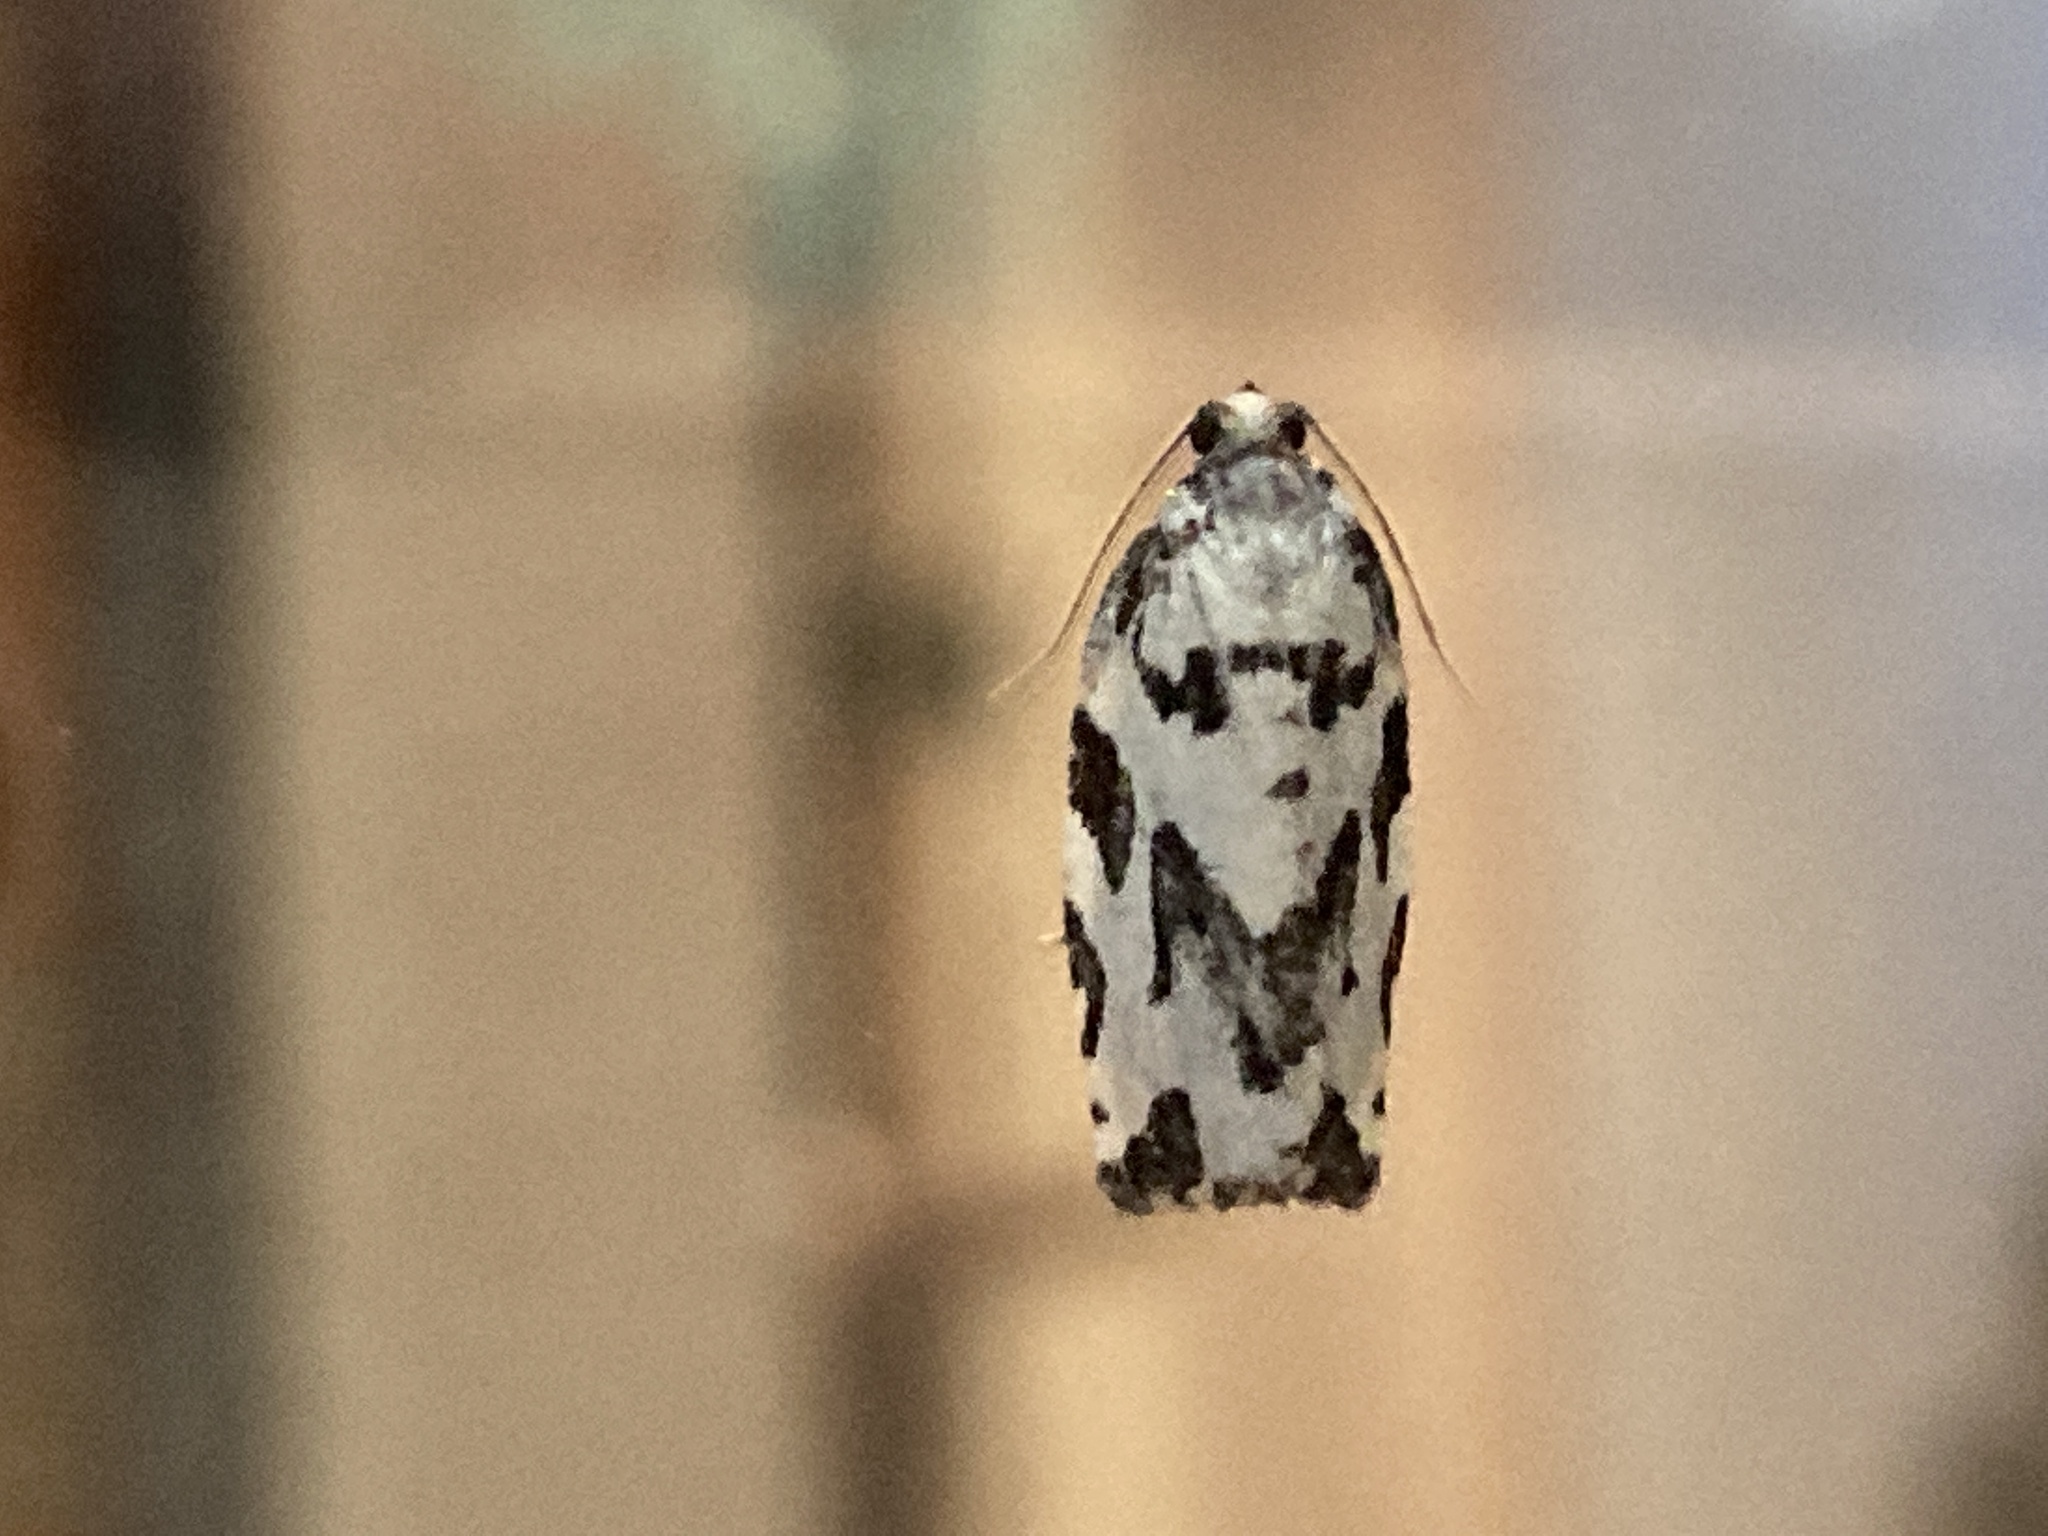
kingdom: Animalia
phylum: Arthropoda
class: Insecta
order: Lepidoptera
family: Tortricidae
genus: Archips
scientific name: Archips dissitana
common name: Boldly-marked archips moth
